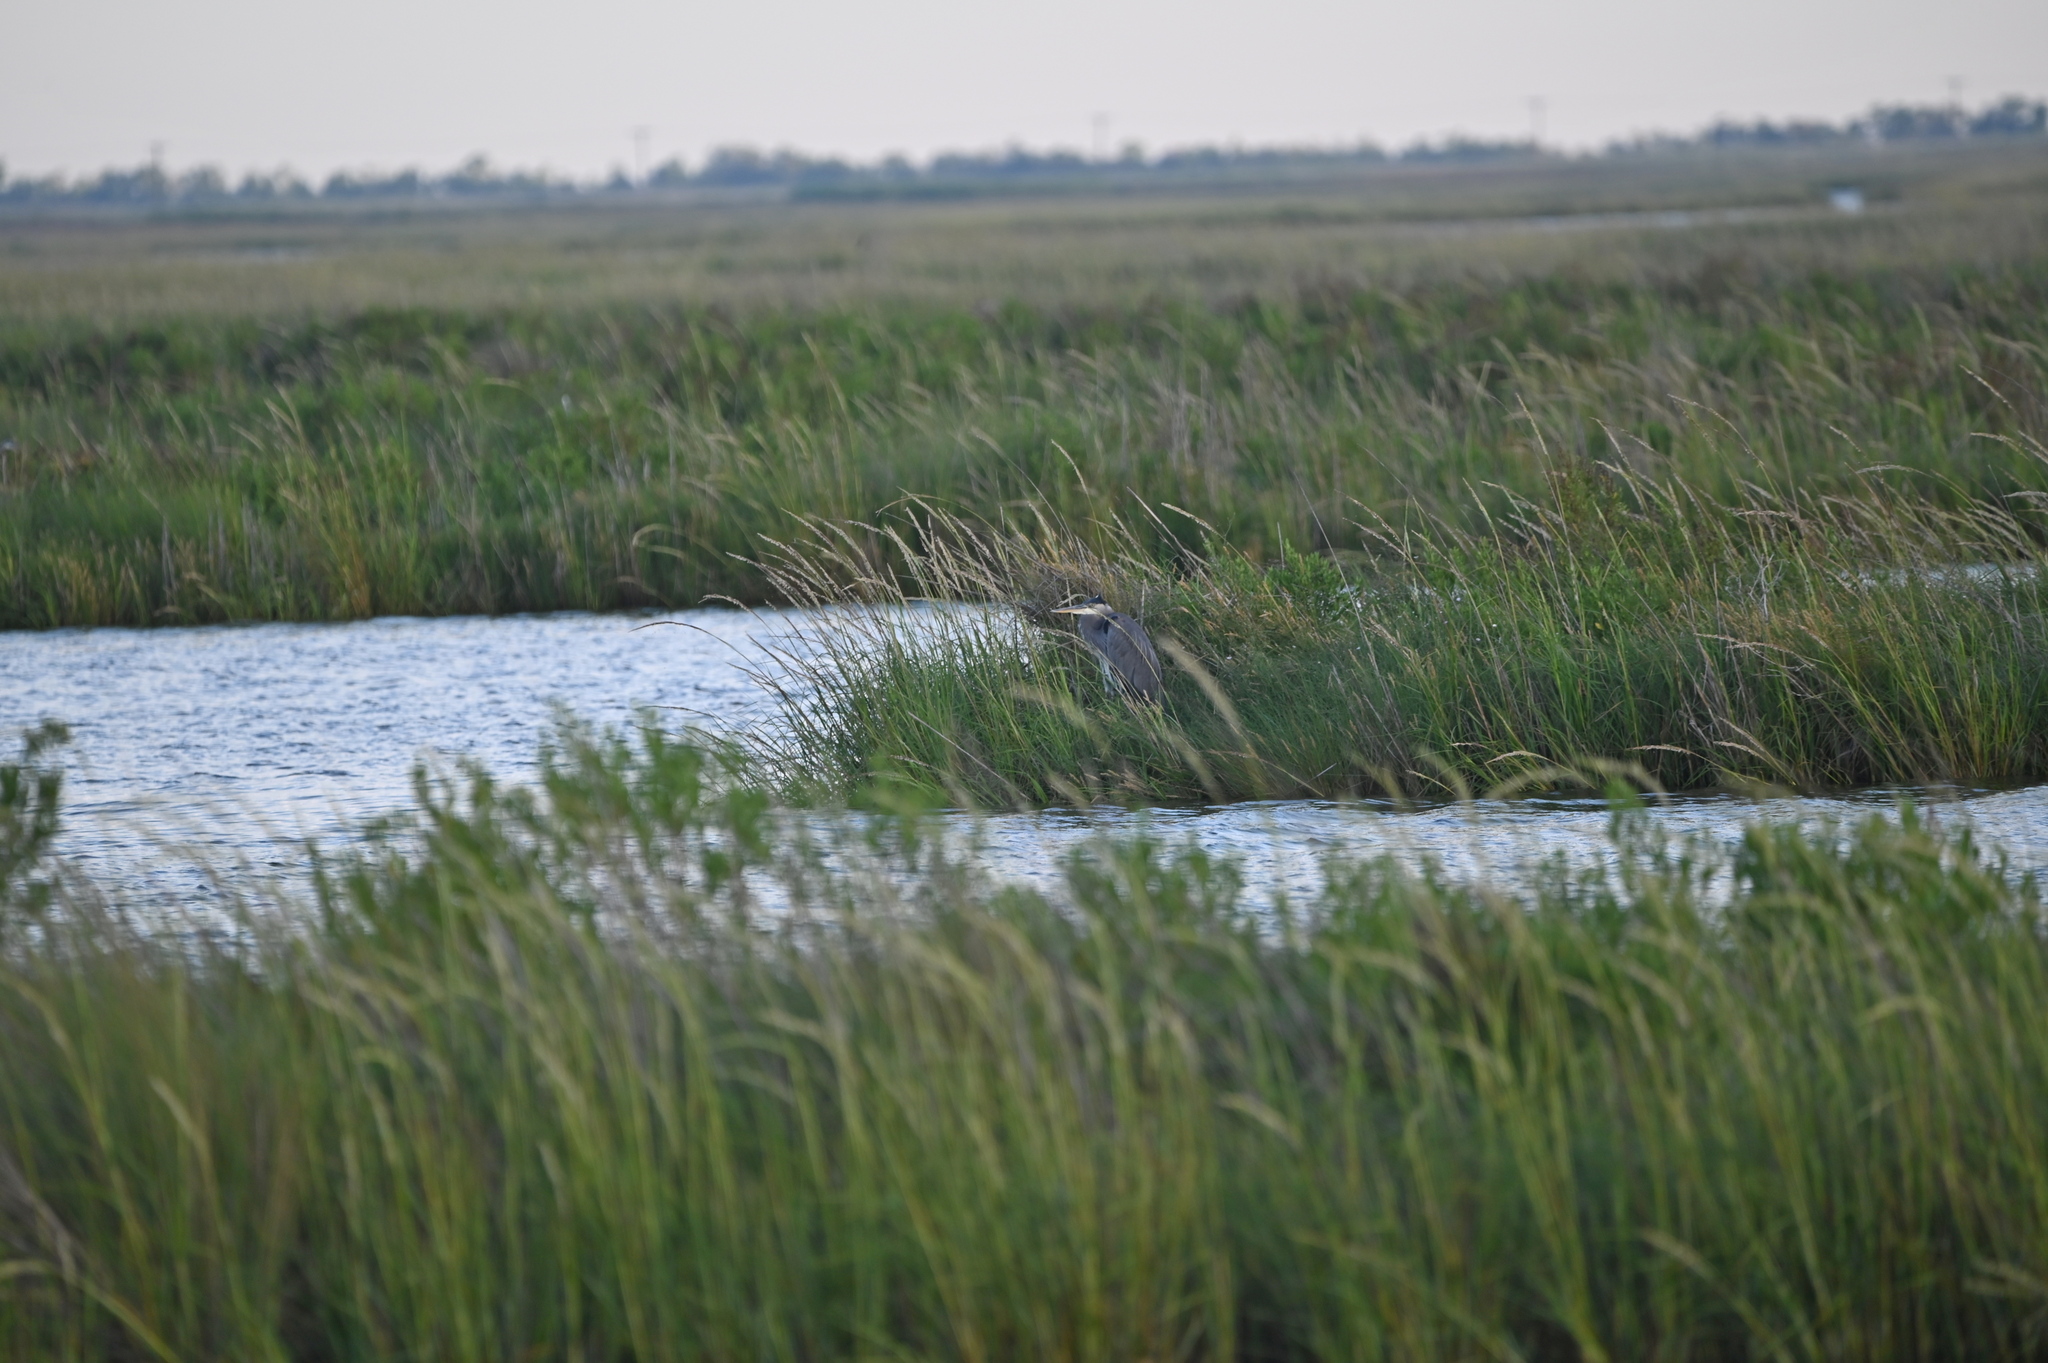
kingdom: Animalia
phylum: Chordata
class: Aves
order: Pelecaniformes
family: Ardeidae
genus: Ardea
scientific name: Ardea herodias
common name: Great blue heron
